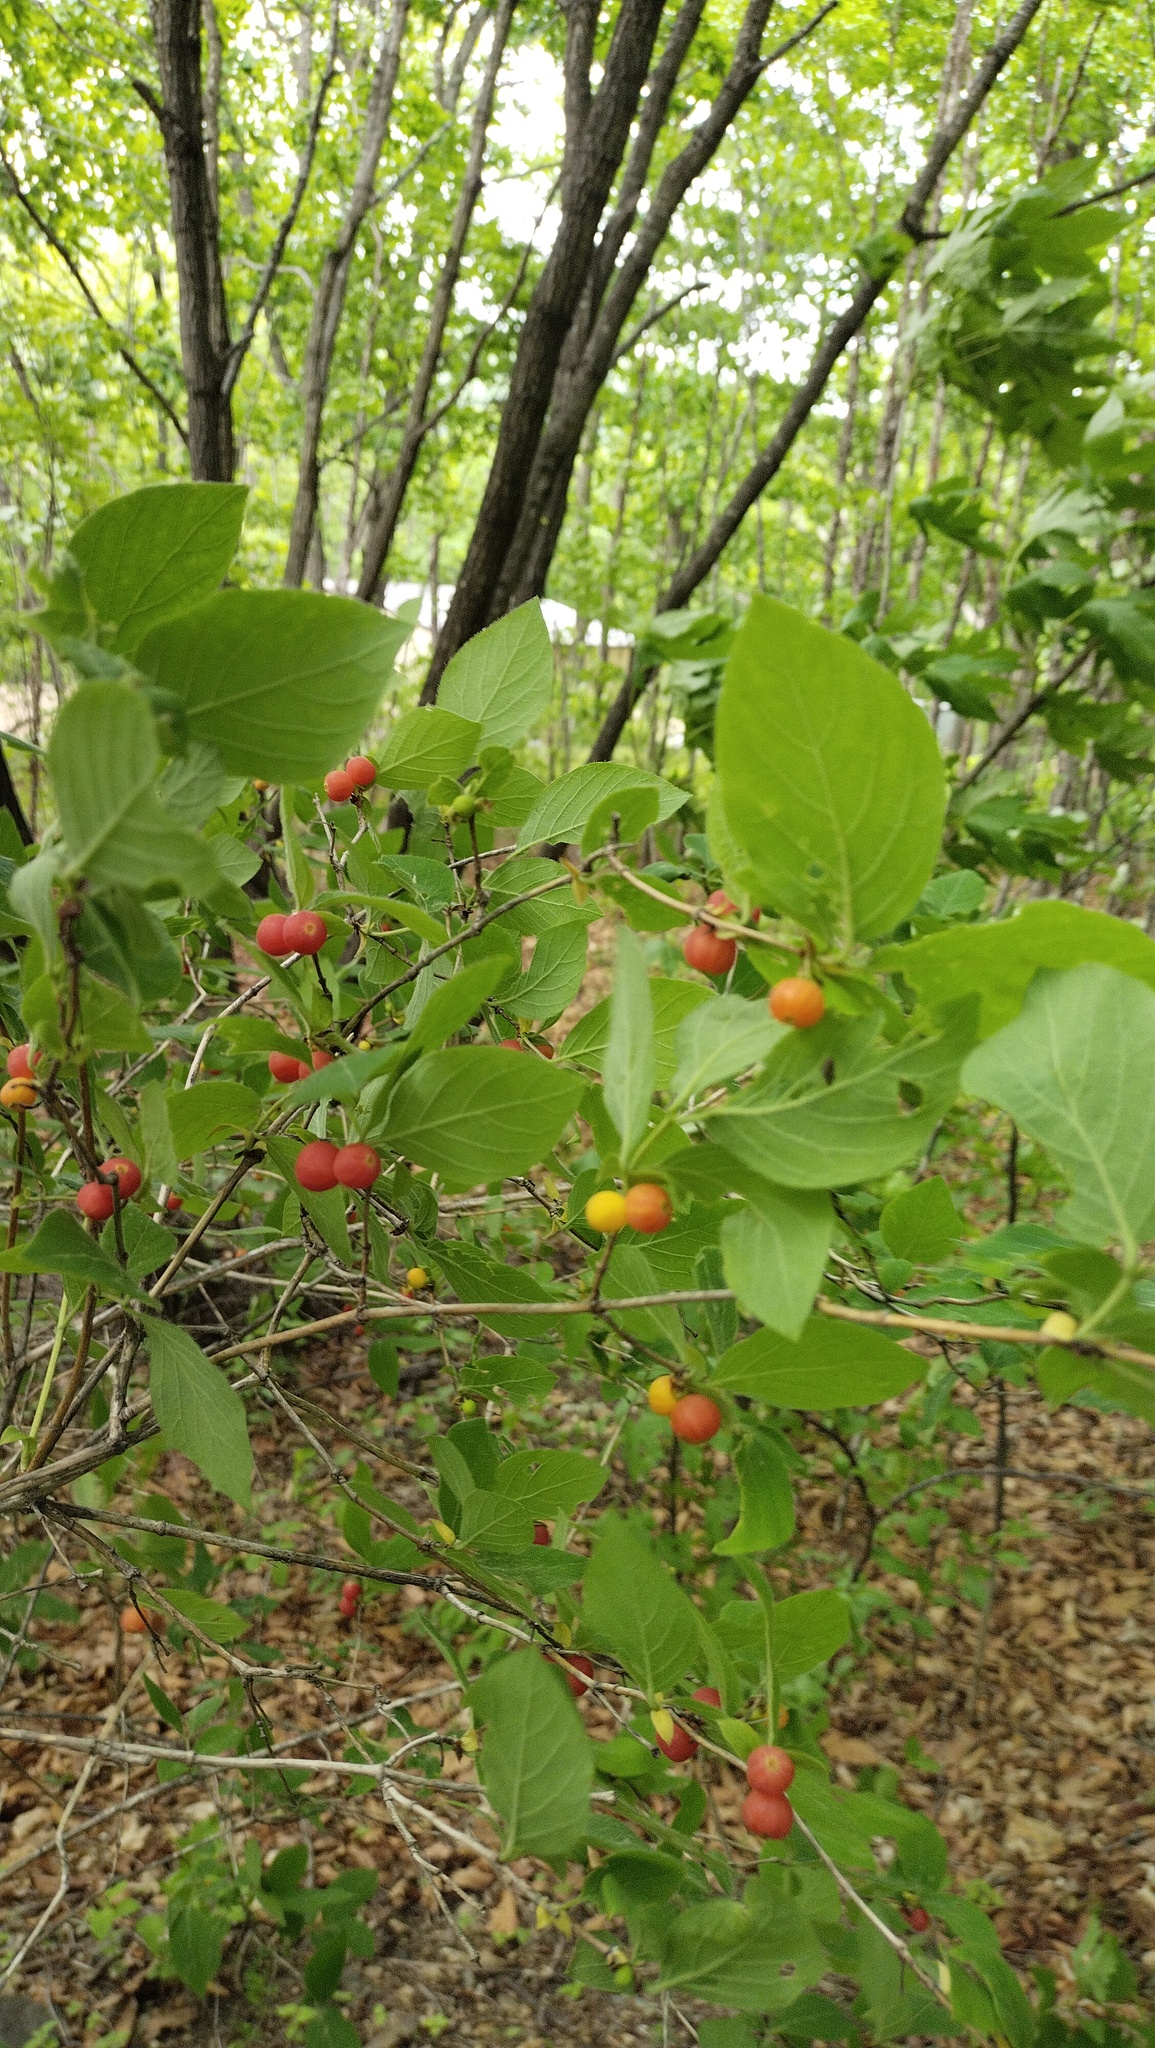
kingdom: Plantae
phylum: Tracheophyta
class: Magnoliopsida
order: Dipsacales
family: Caprifoliaceae
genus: Lonicera
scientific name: Lonicera praeflorens
